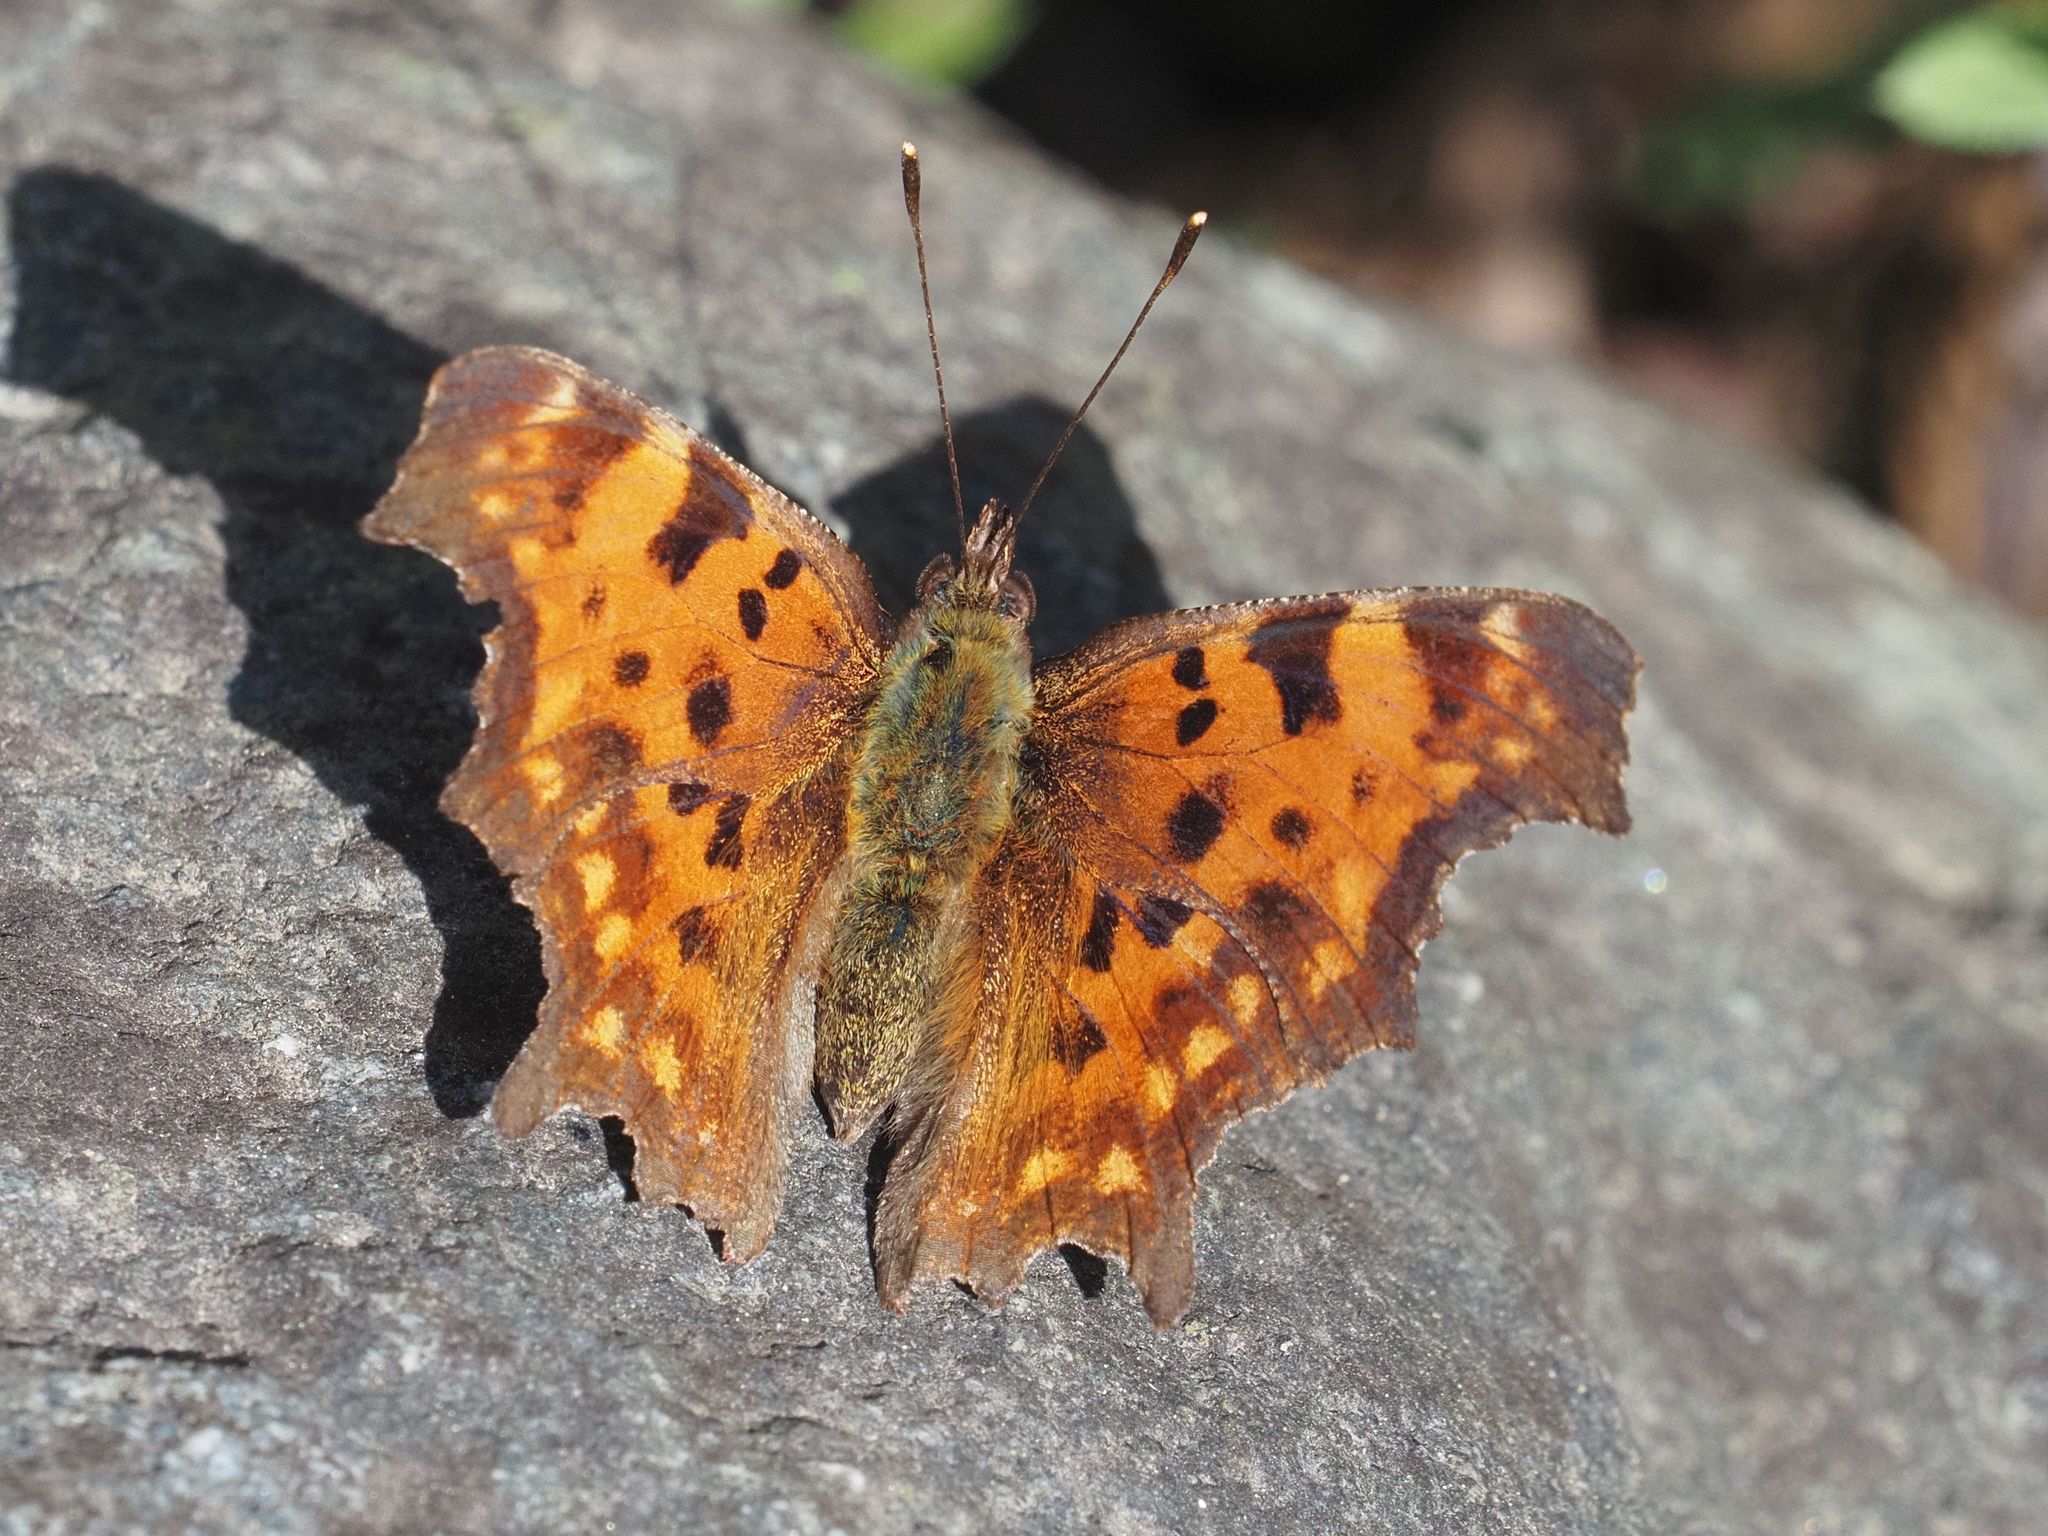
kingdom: Animalia
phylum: Arthropoda
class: Insecta
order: Lepidoptera
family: Nymphalidae
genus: Polygonia
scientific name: Polygonia c-album
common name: Comma
